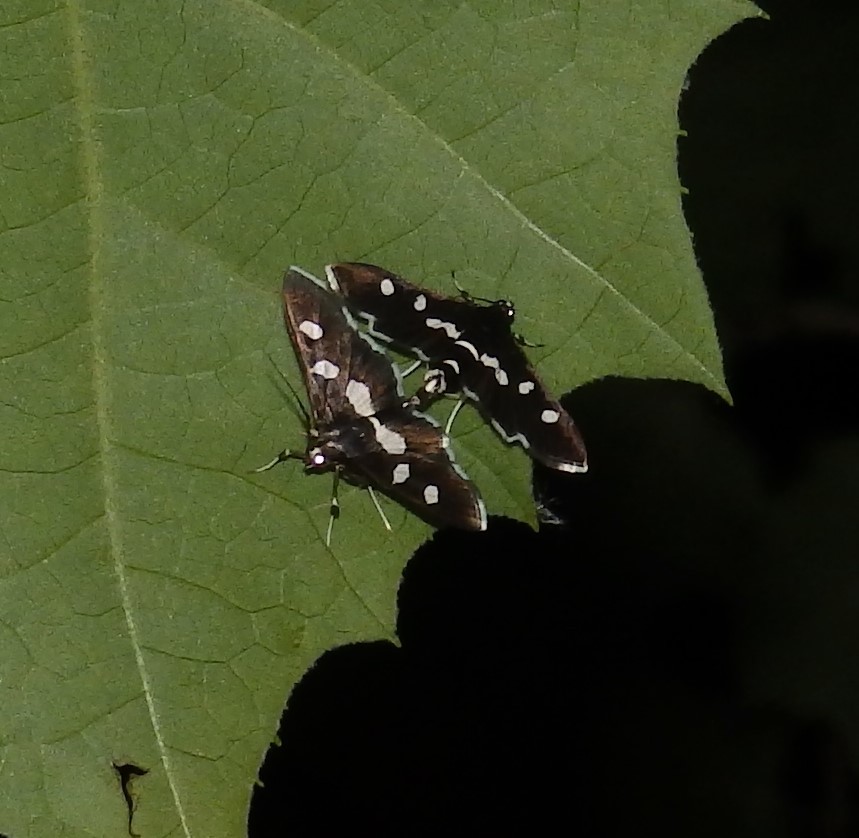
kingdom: Animalia
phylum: Arthropoda
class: Insecta
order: Lepidoptera
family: Crambidae
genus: Desmia
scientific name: Desmia
